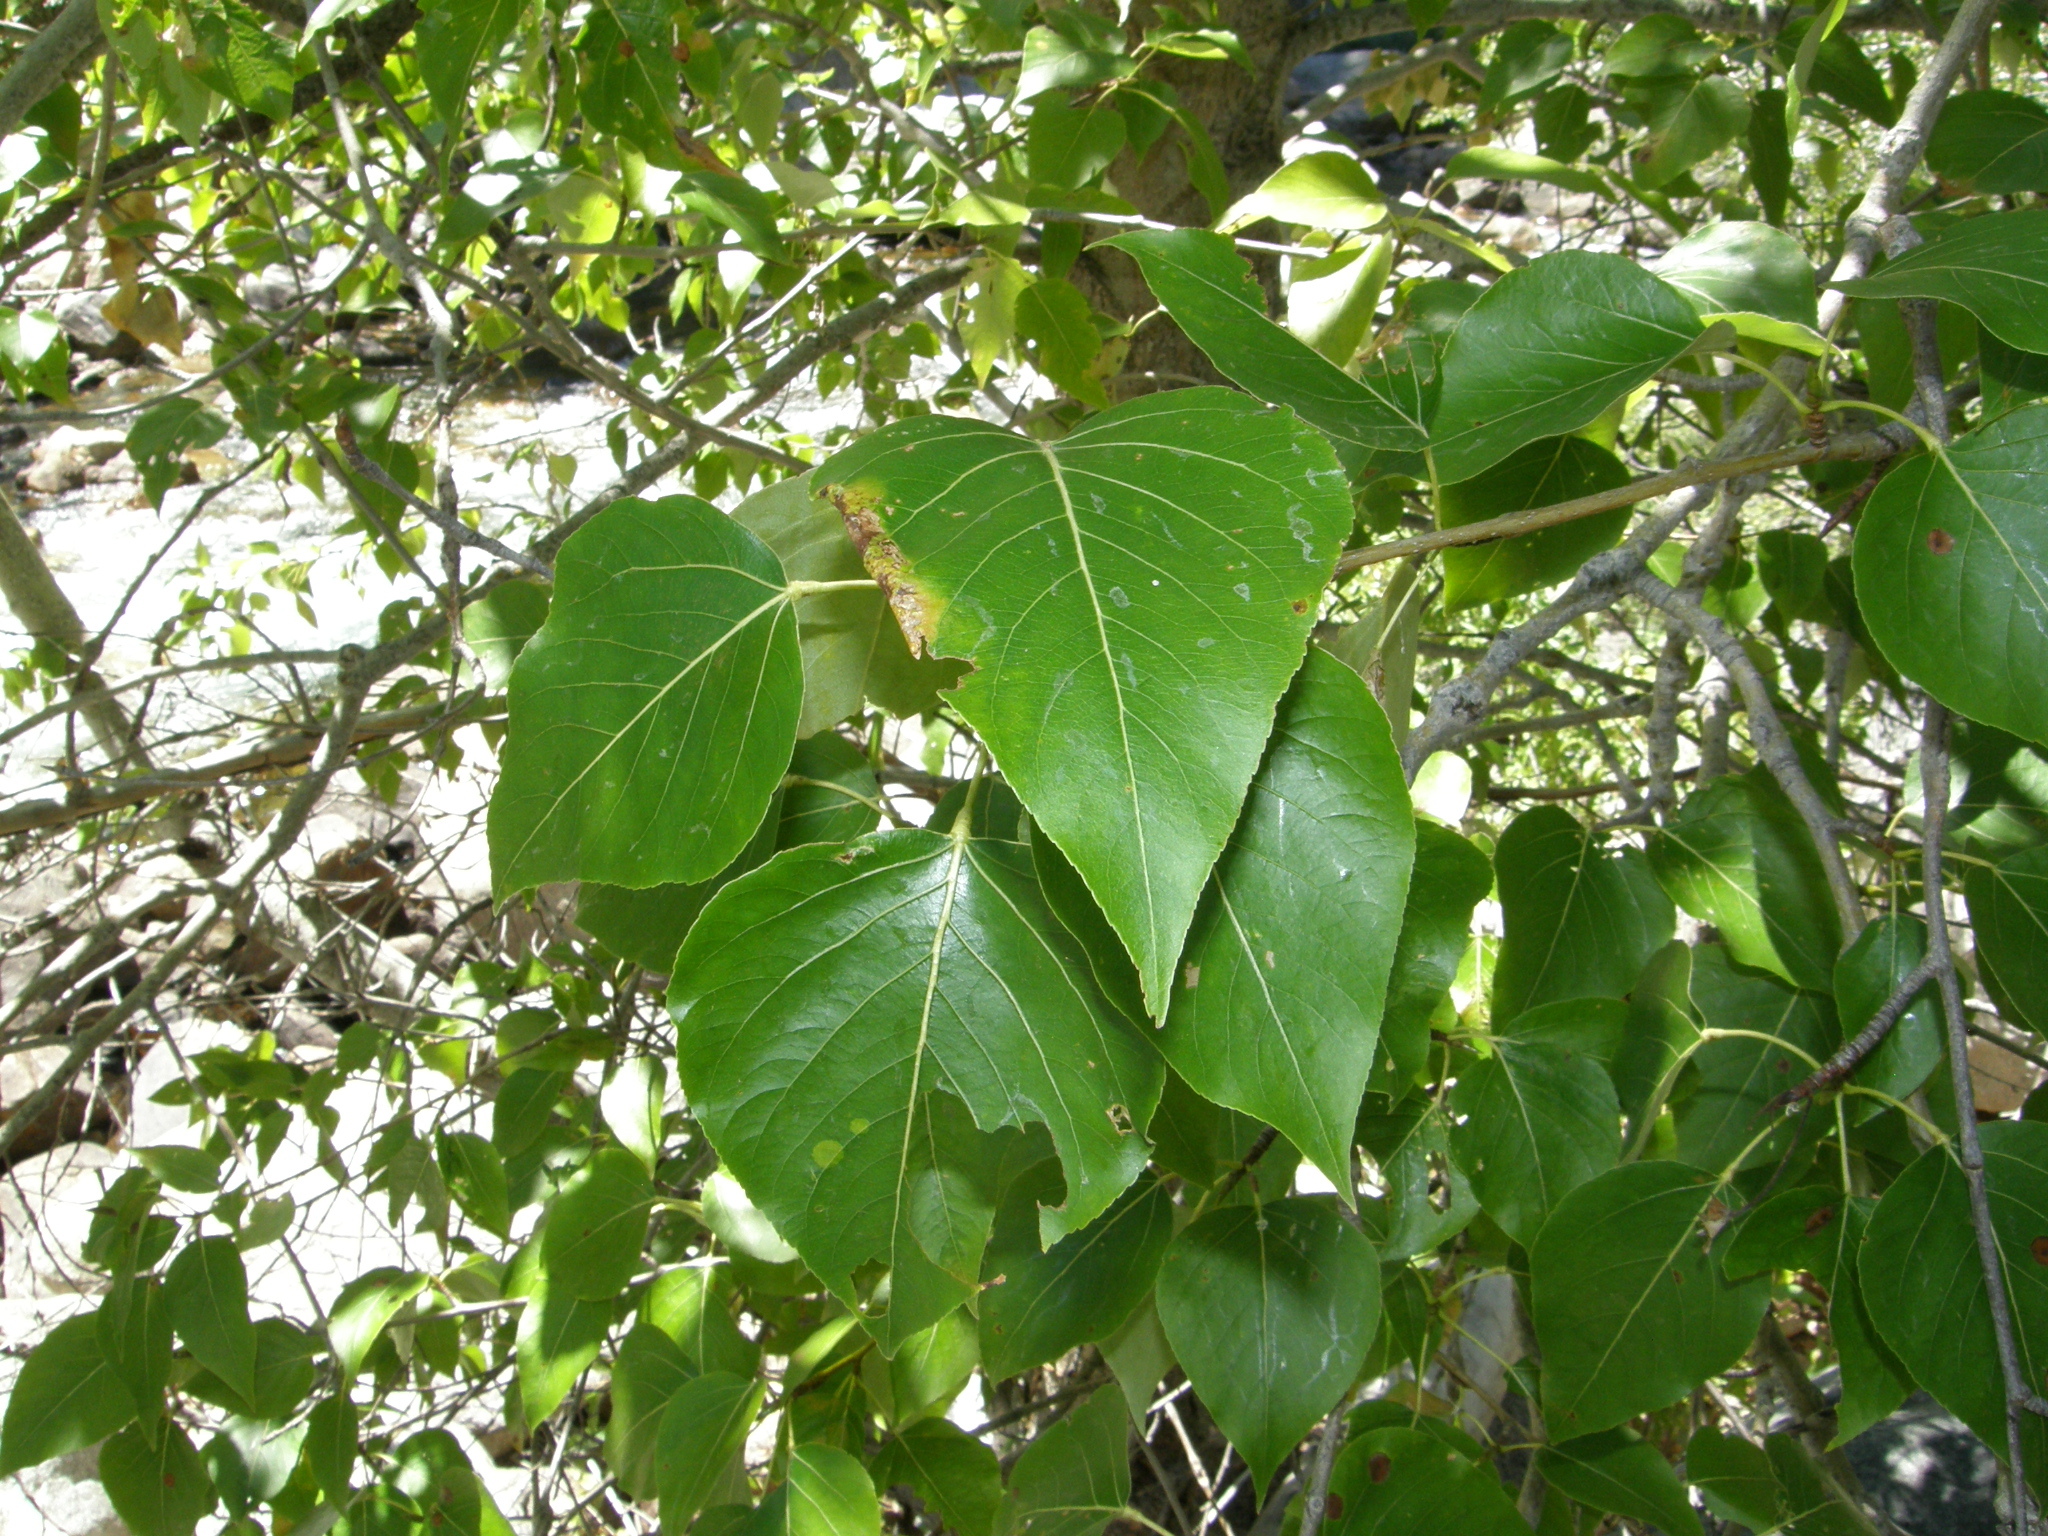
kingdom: Plantae
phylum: Tracheophyta
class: Magnoliopsida
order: Malpighiales
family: Salicaceae
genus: Populus
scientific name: Populus trichocarpa
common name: Black cottonwood
